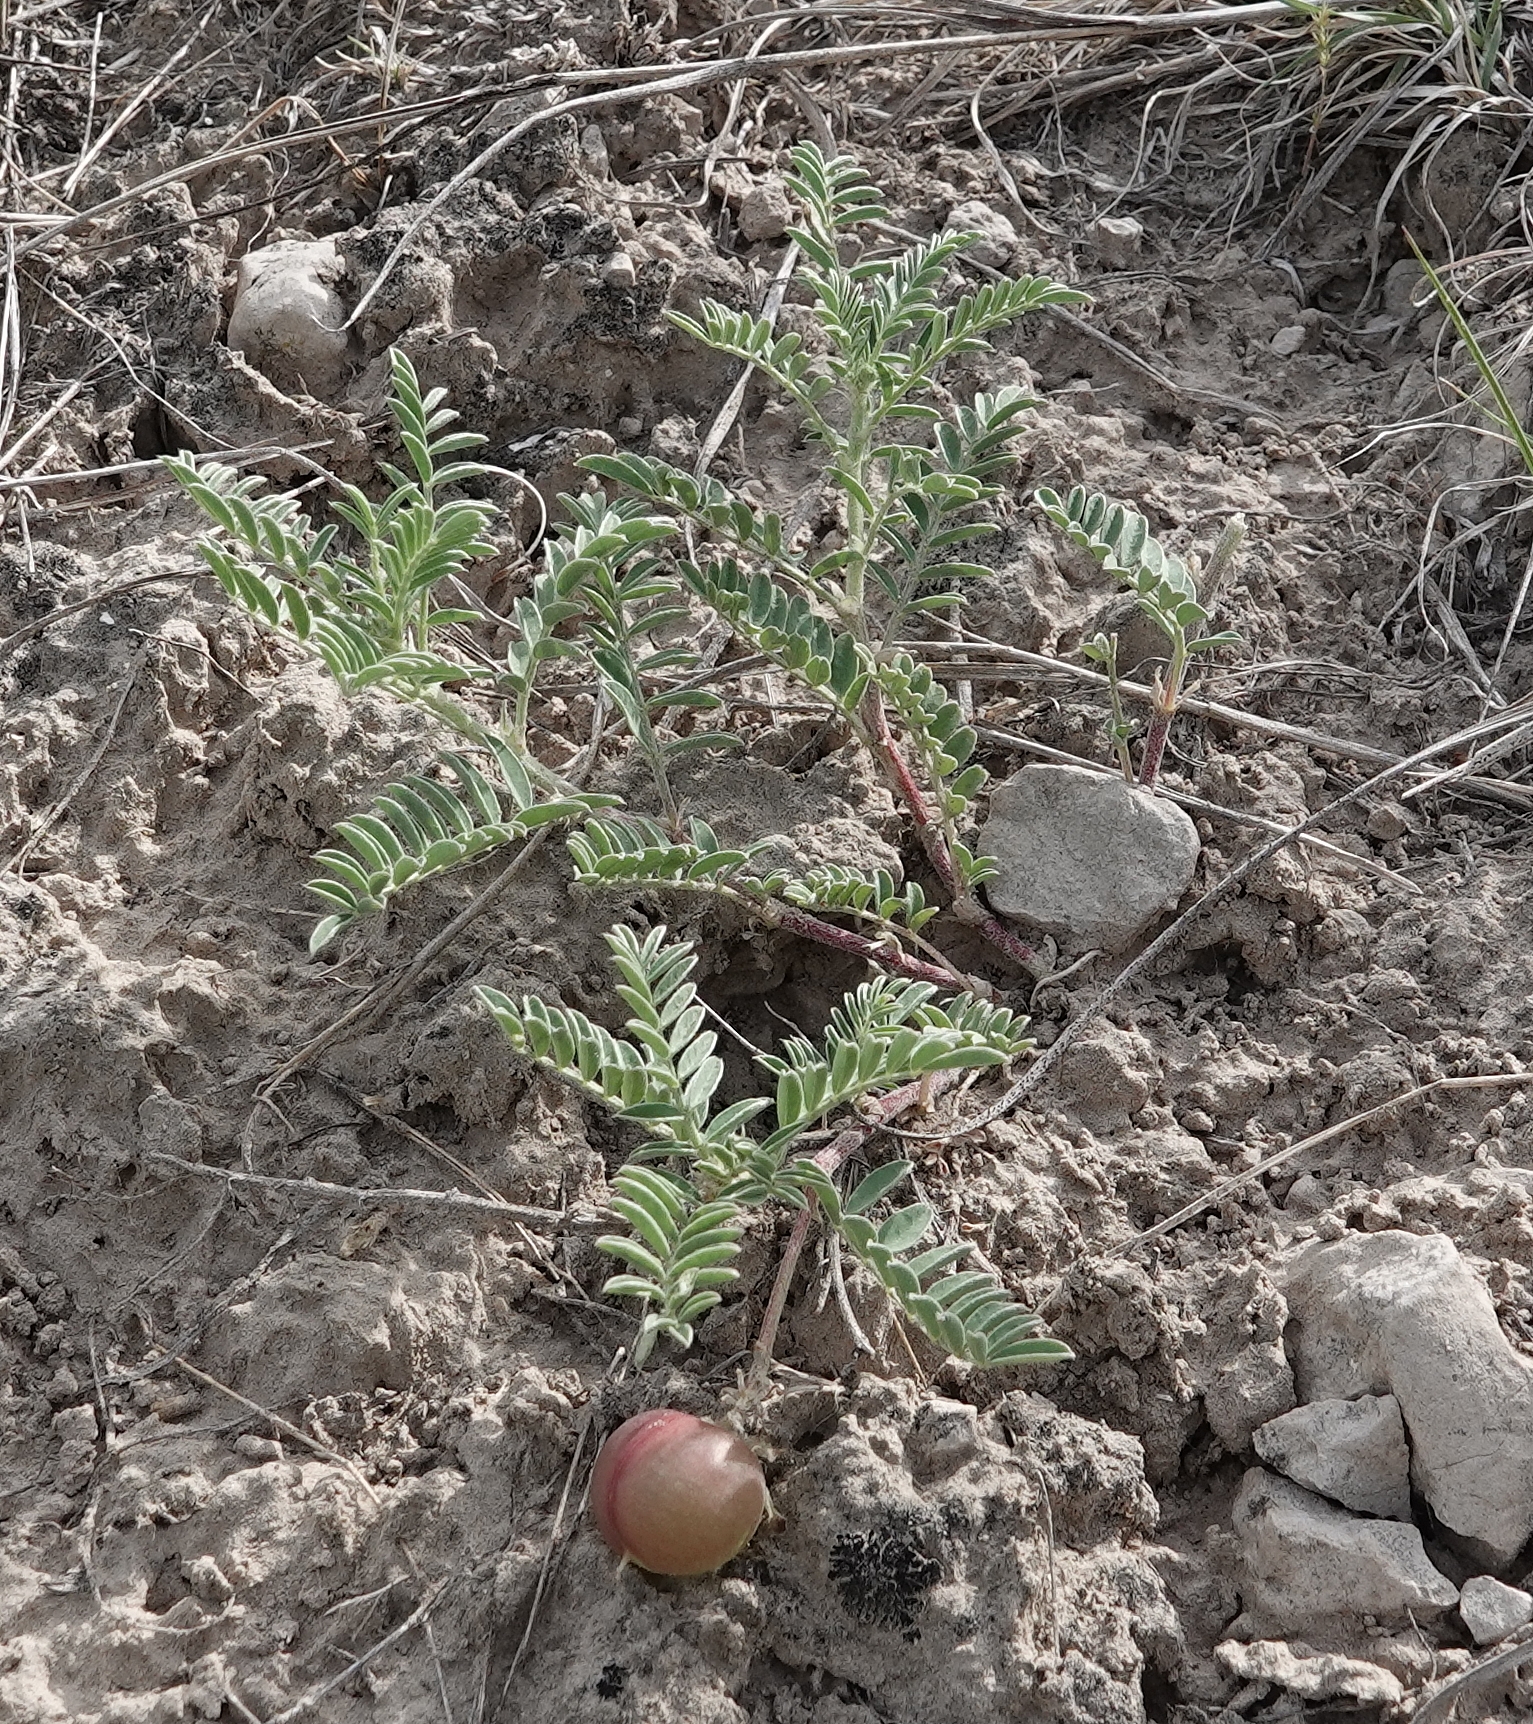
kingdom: Plantae
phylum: Tracheophyta
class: Magnoliopsida
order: Fabales
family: Fabaceae
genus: Astragalus
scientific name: Astragalus crassicarpus
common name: Ground-plum milk-vetch
